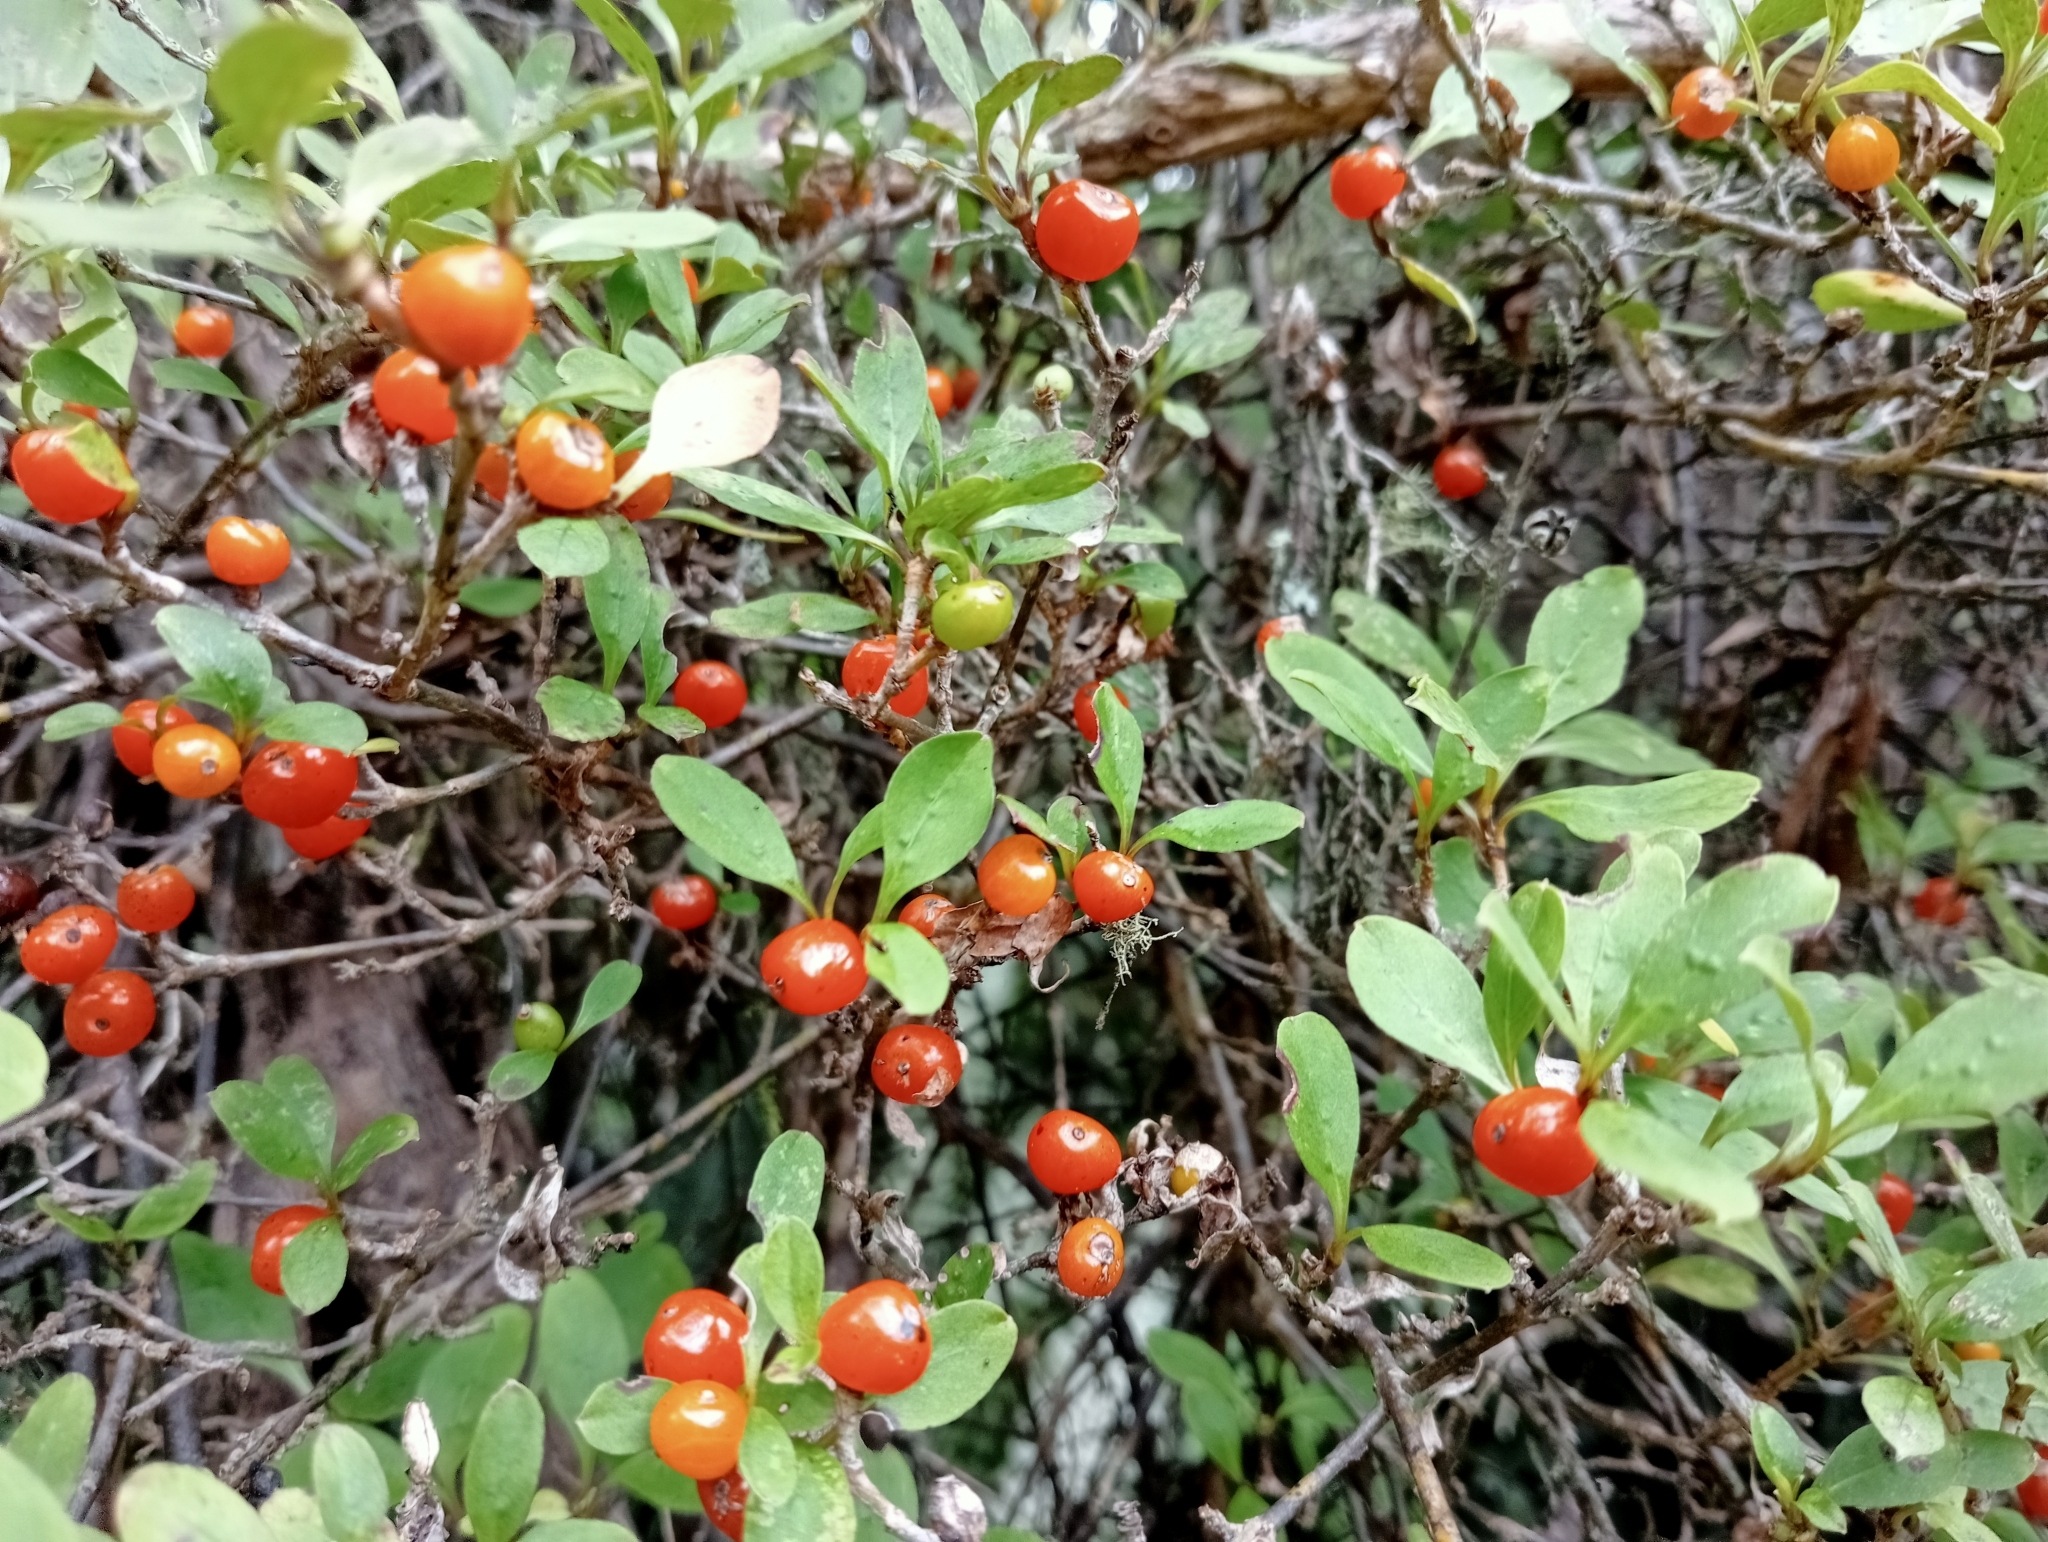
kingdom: Plantae
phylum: Tracheophyta
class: Magnoliopsida
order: Gentianales
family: Rubiaceae
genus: Coprosma
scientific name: Coprosma foetidissima
